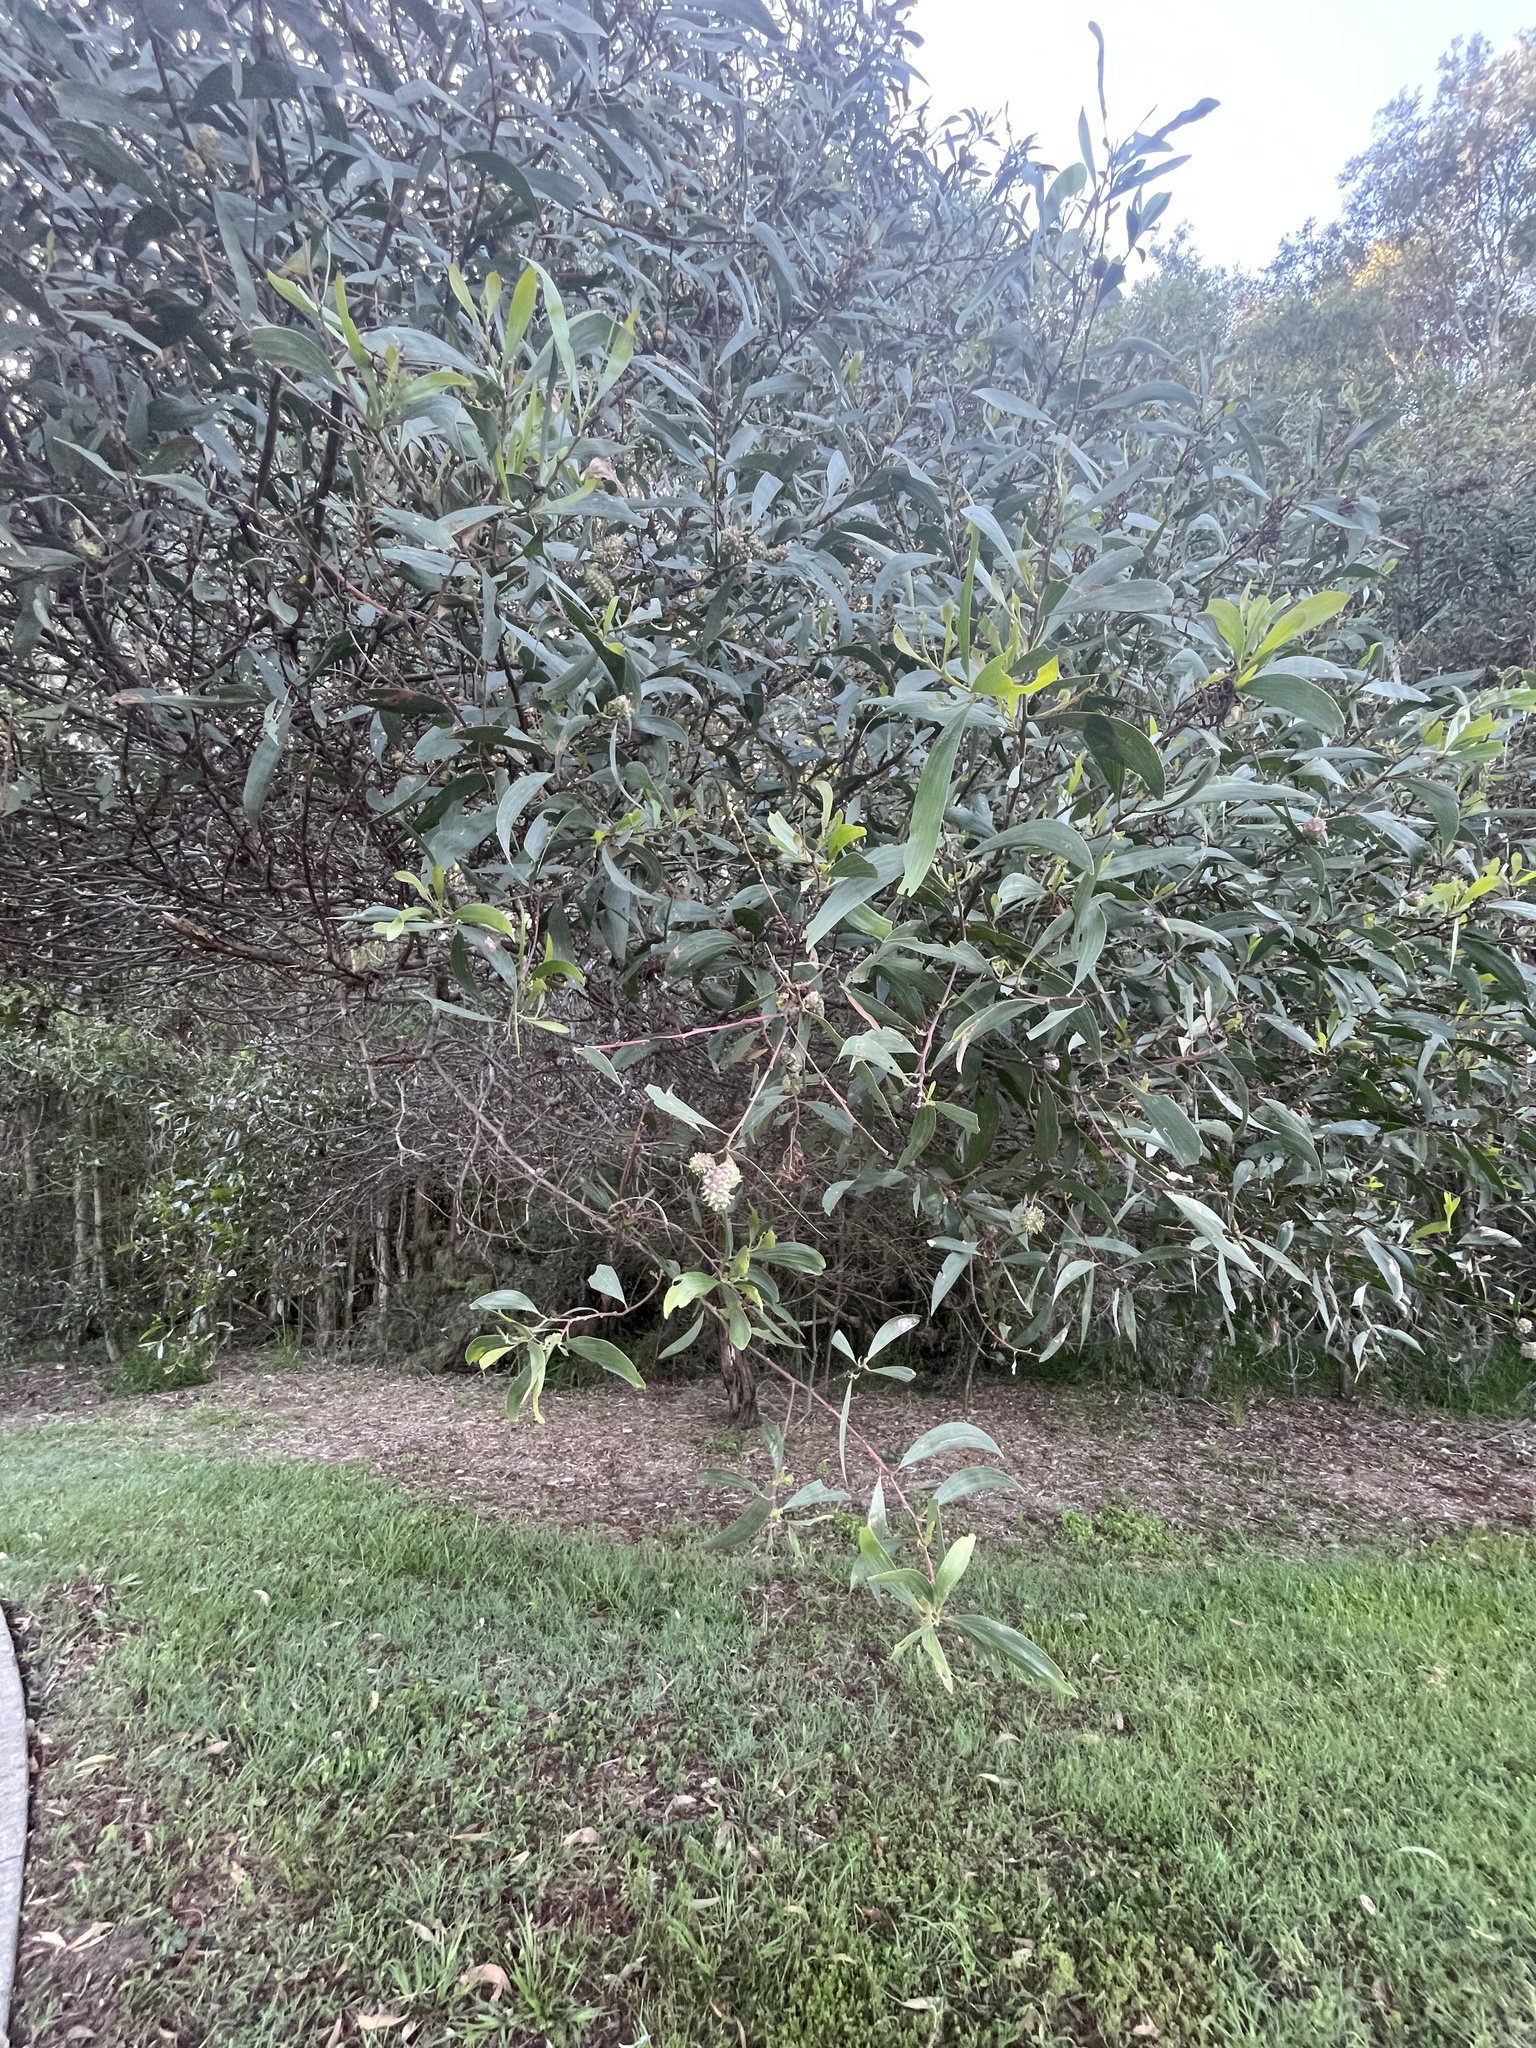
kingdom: Plantae
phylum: Tracheophyta
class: Magnoliopsida
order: Fabales
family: Fabaceae
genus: Acacia
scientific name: Acacia leiocalyx
